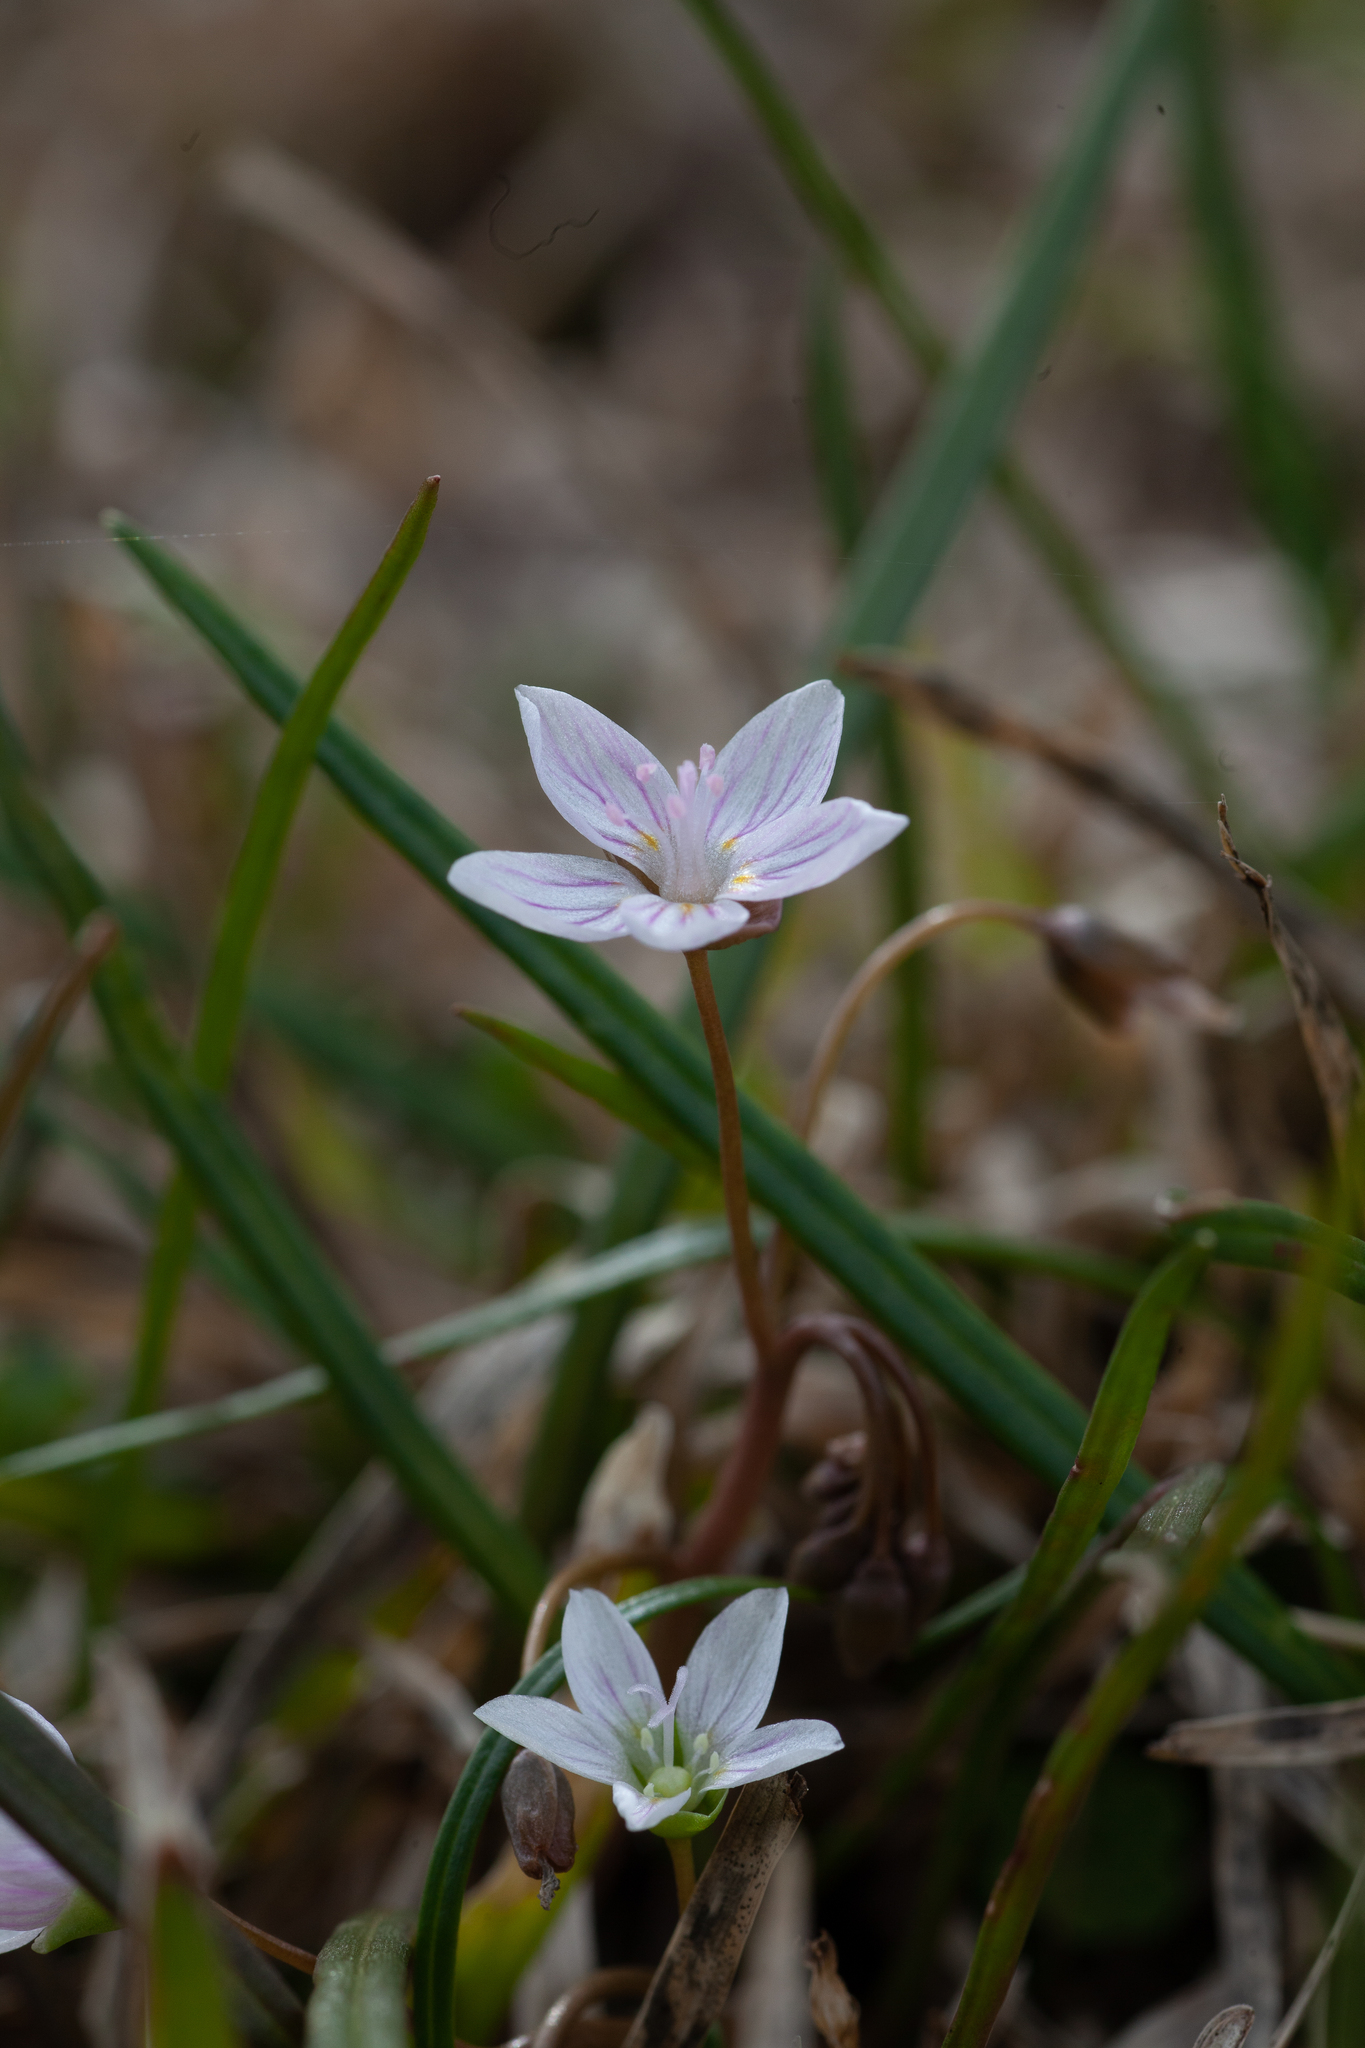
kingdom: Plantae
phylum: Tracheophyta
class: Magnoliopsida
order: Caryophyllales
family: Montiaceae
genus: Claytonia
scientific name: Claytonia virginica
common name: Virginia springbeauty
